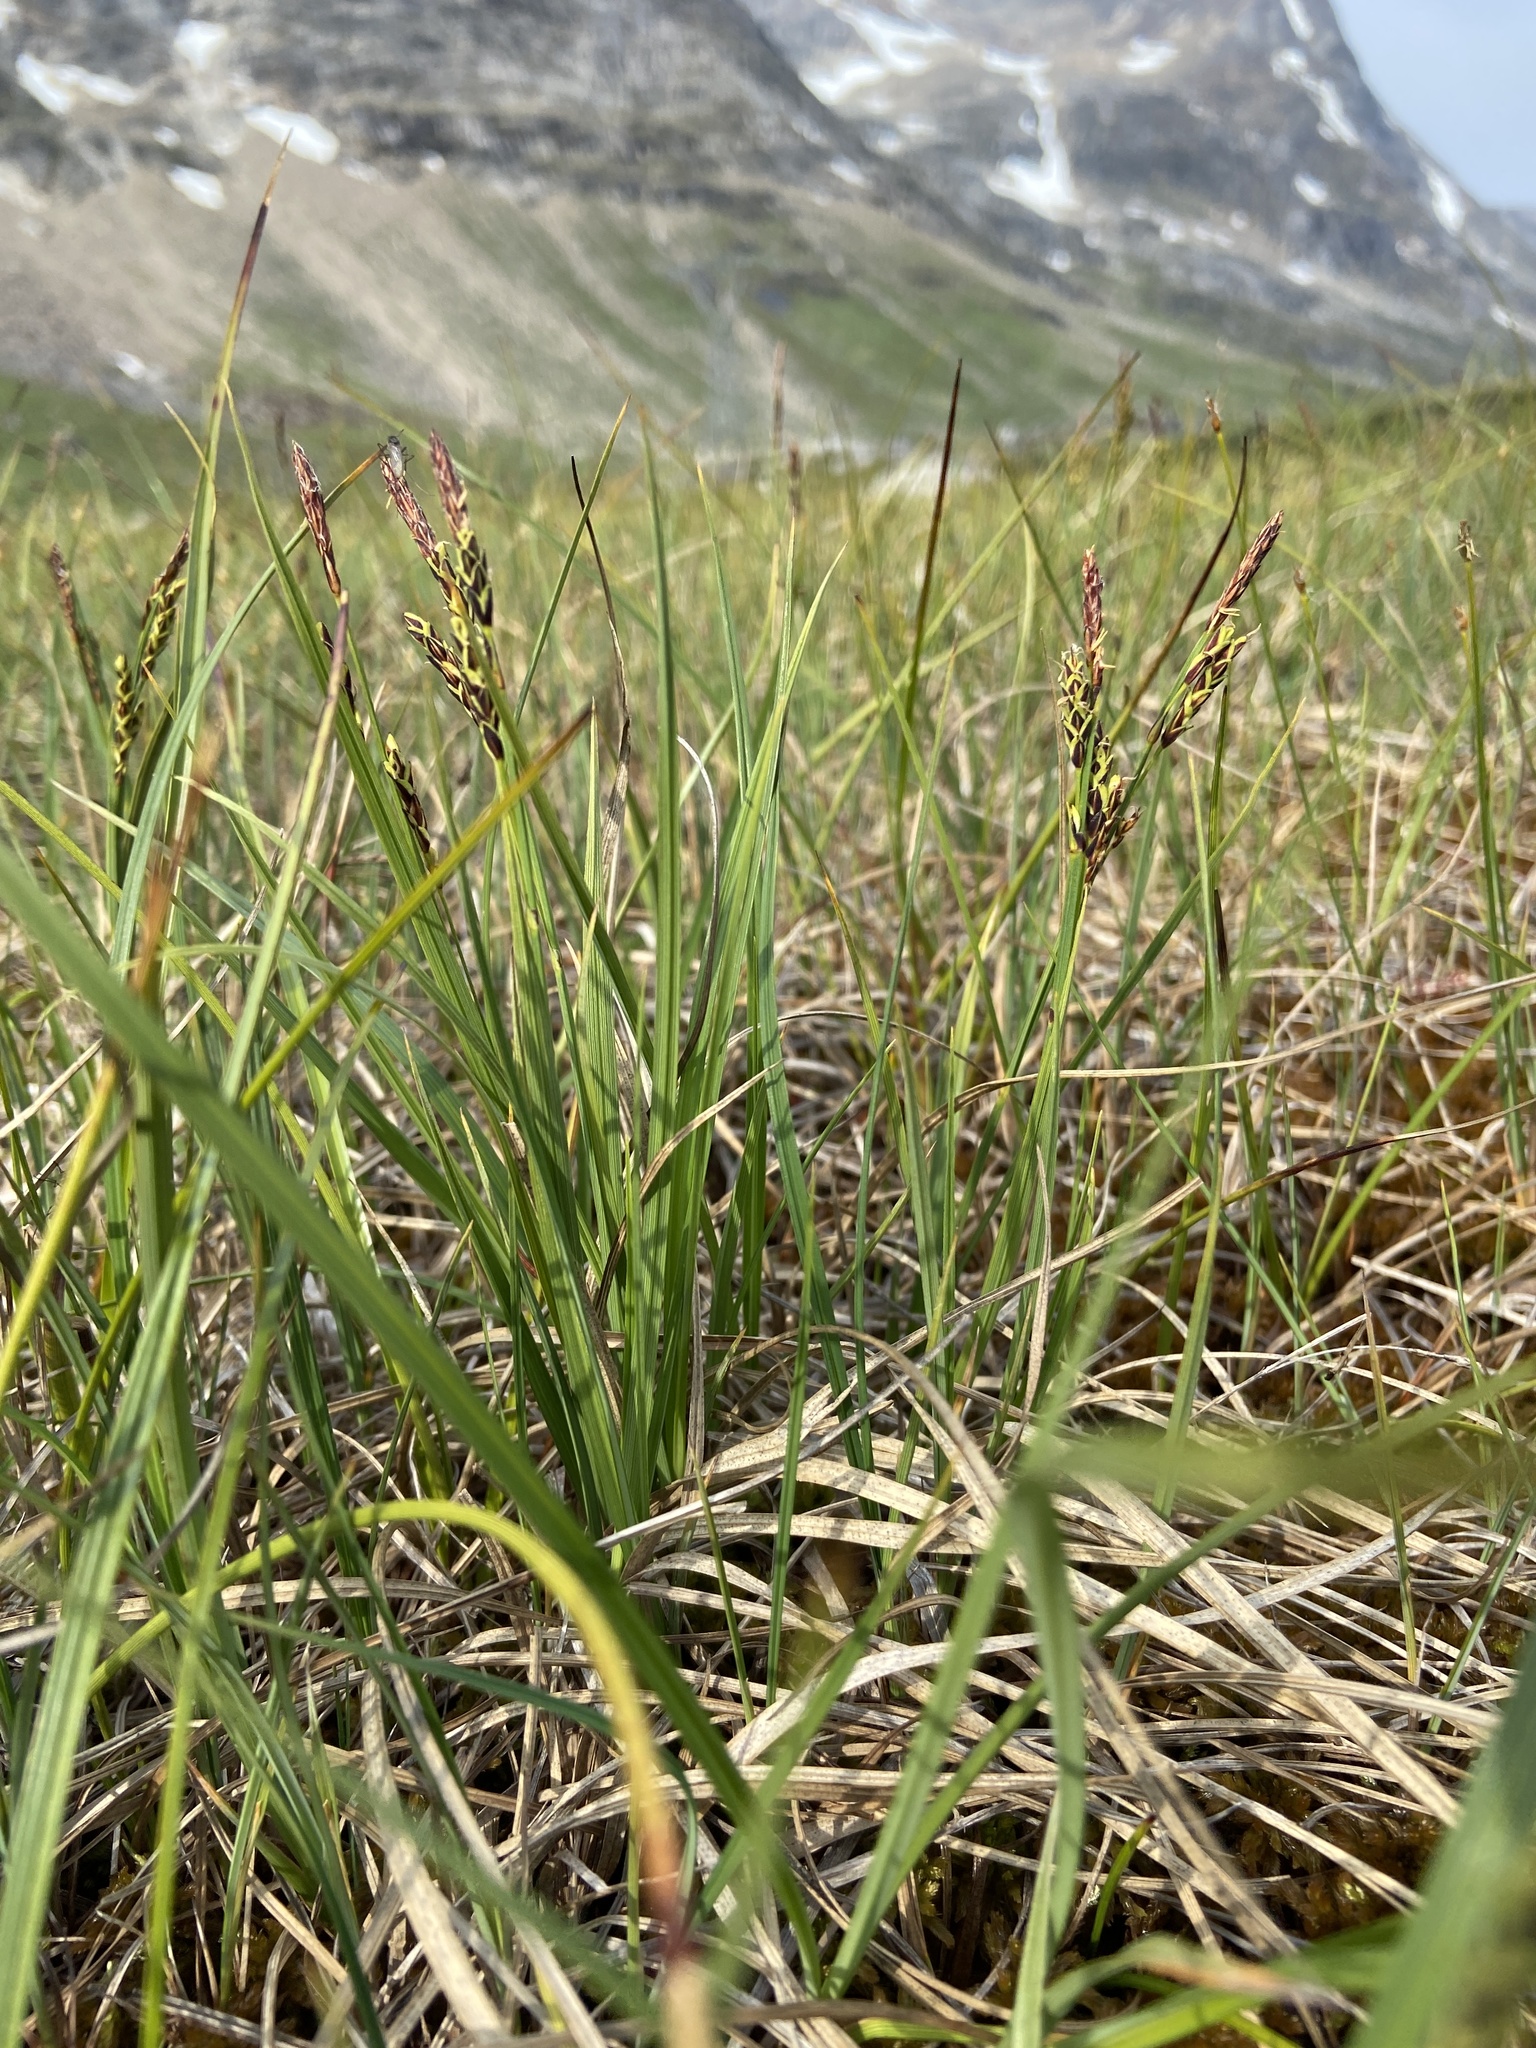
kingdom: Plantae
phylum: Tracheophyta
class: Liliopsida
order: Poales
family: Cyperaceae
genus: Carex
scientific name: Carex bigelowii
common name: Stiff sedge
